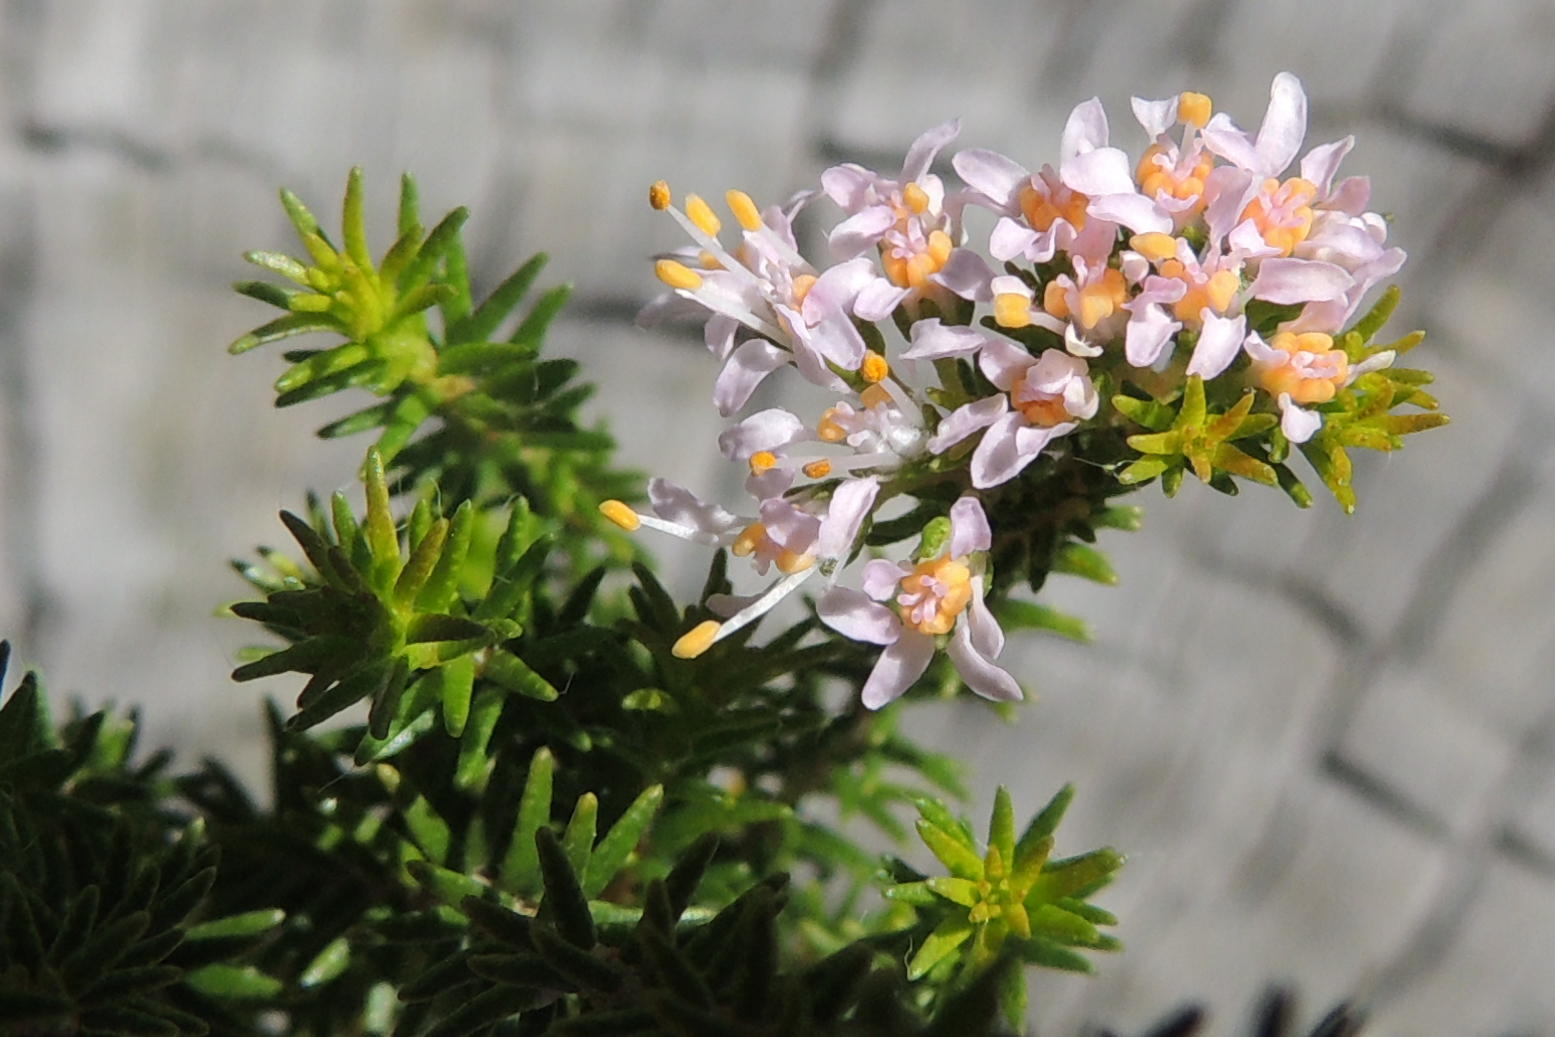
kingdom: Plantae
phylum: Tracheophyta
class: Magnoliopsida
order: Sapindales
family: Rutaceae
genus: Agathosma
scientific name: Agathosma capensis
